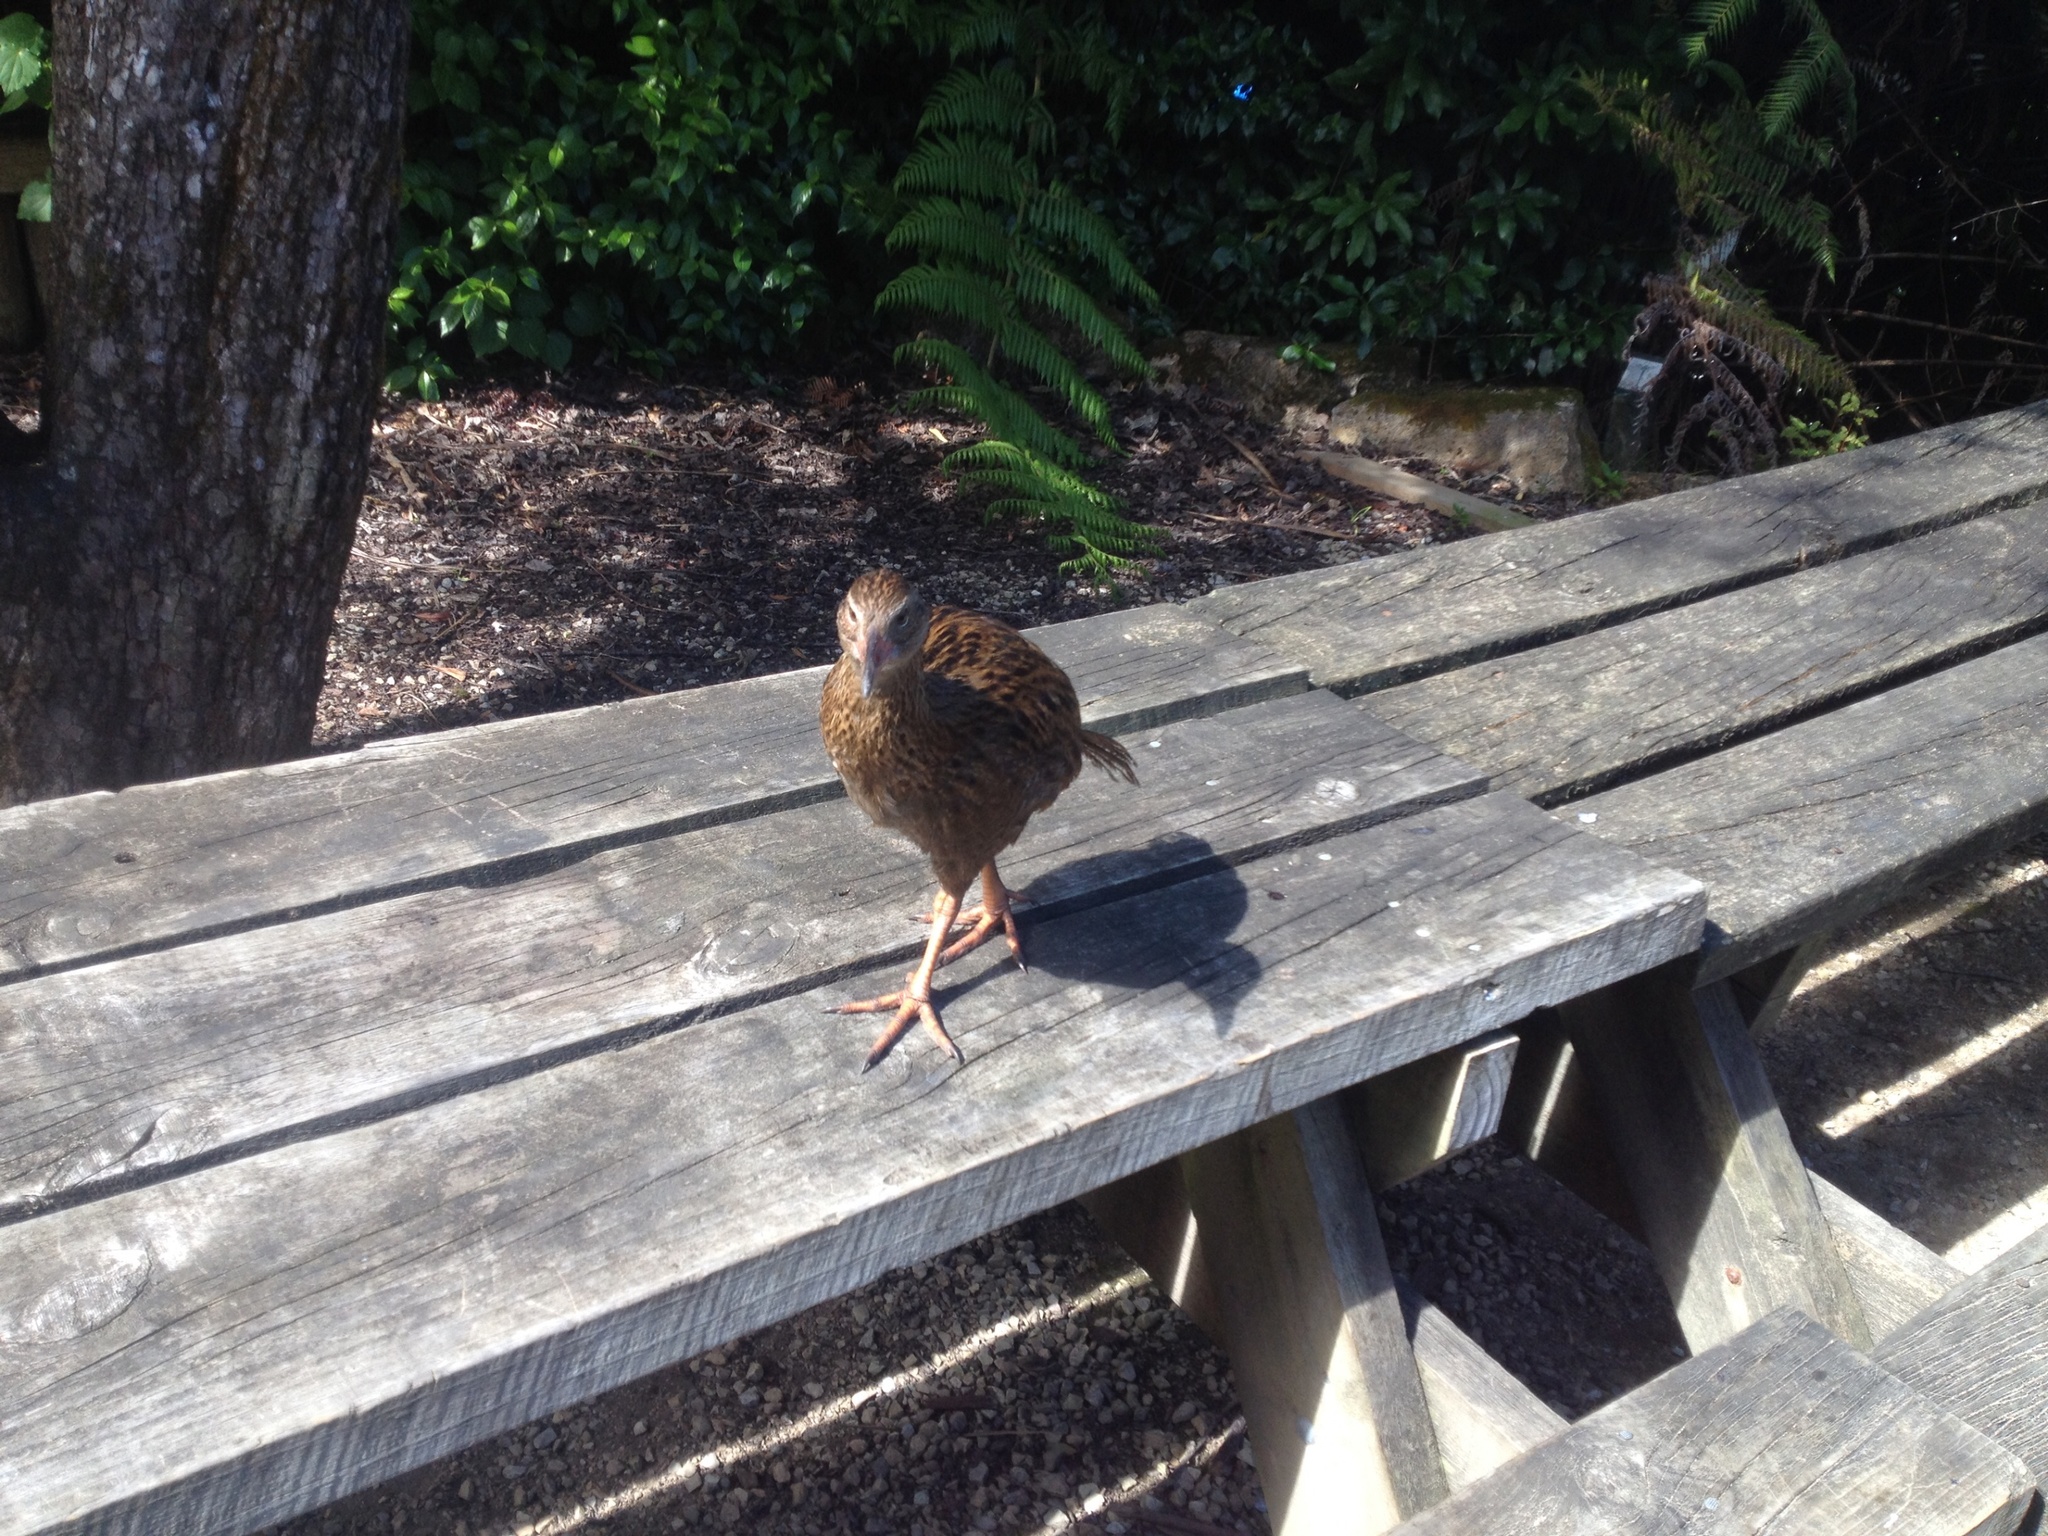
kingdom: Animalia
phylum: Chordata
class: Aves
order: Gruiformes
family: Rallidae
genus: Gallirallus
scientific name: Gallirallus australis
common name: Weka
